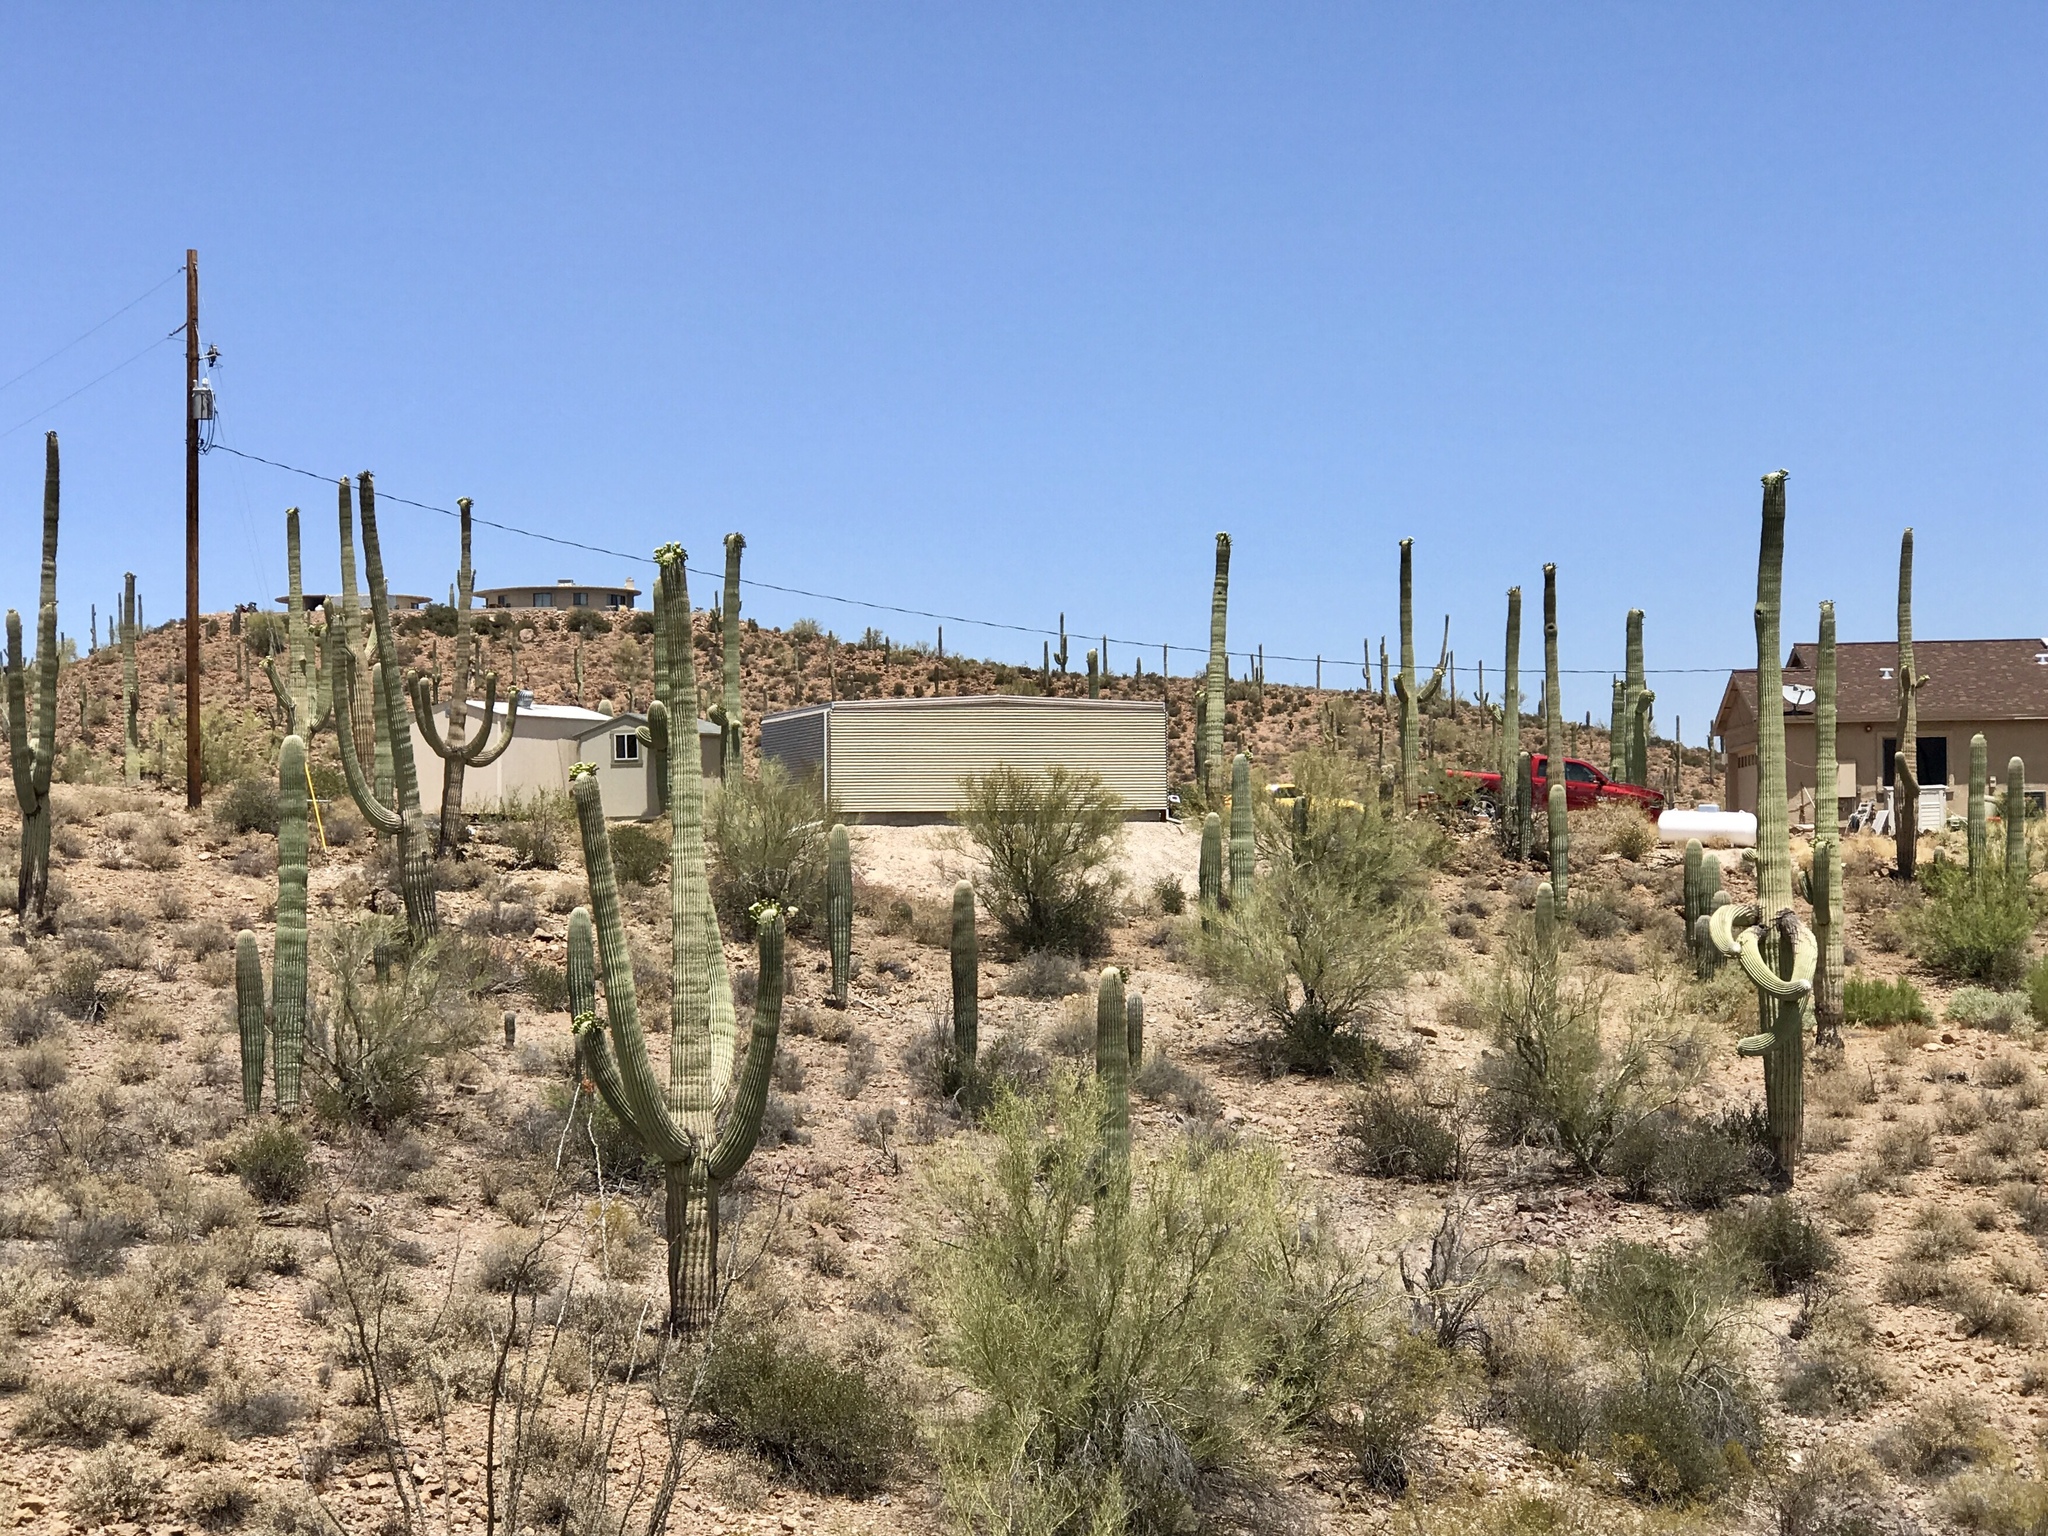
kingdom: Plantae
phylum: Tracheophyta
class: Magnoliopsida
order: Caryophyllales
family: Cactaceae
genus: Carnegiea
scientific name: Carnegiea gigantea
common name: Saguaro
